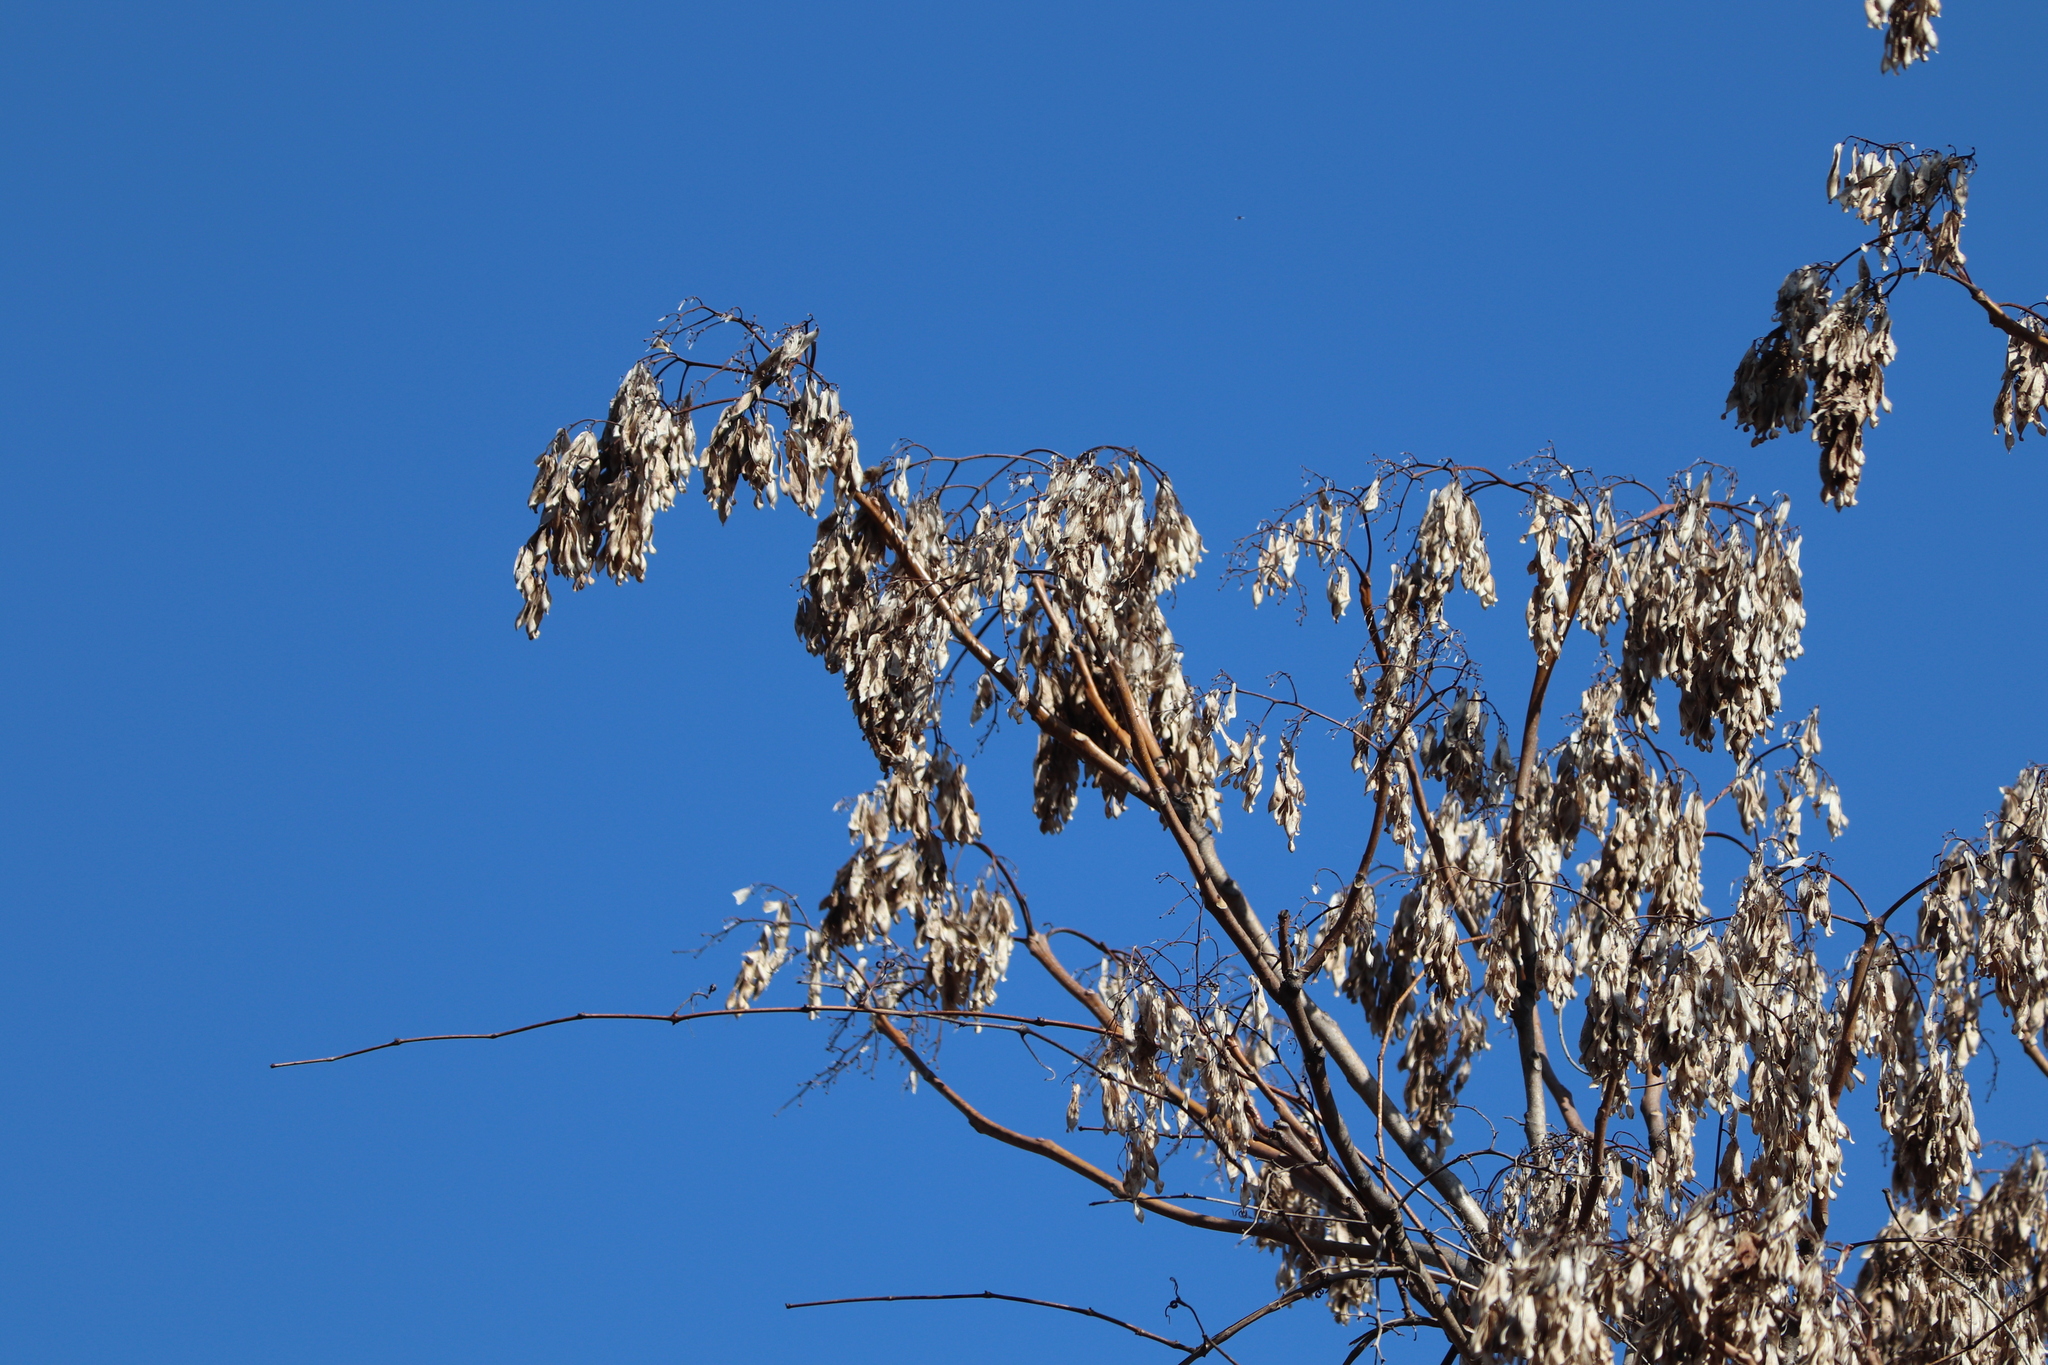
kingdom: Plantae
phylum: Tracheophyta
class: Magnoliopsida
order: Sapindales
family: Simaroubaceae
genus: Ailanthus
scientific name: Ailanthus altissima
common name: Tree-of-heaven
